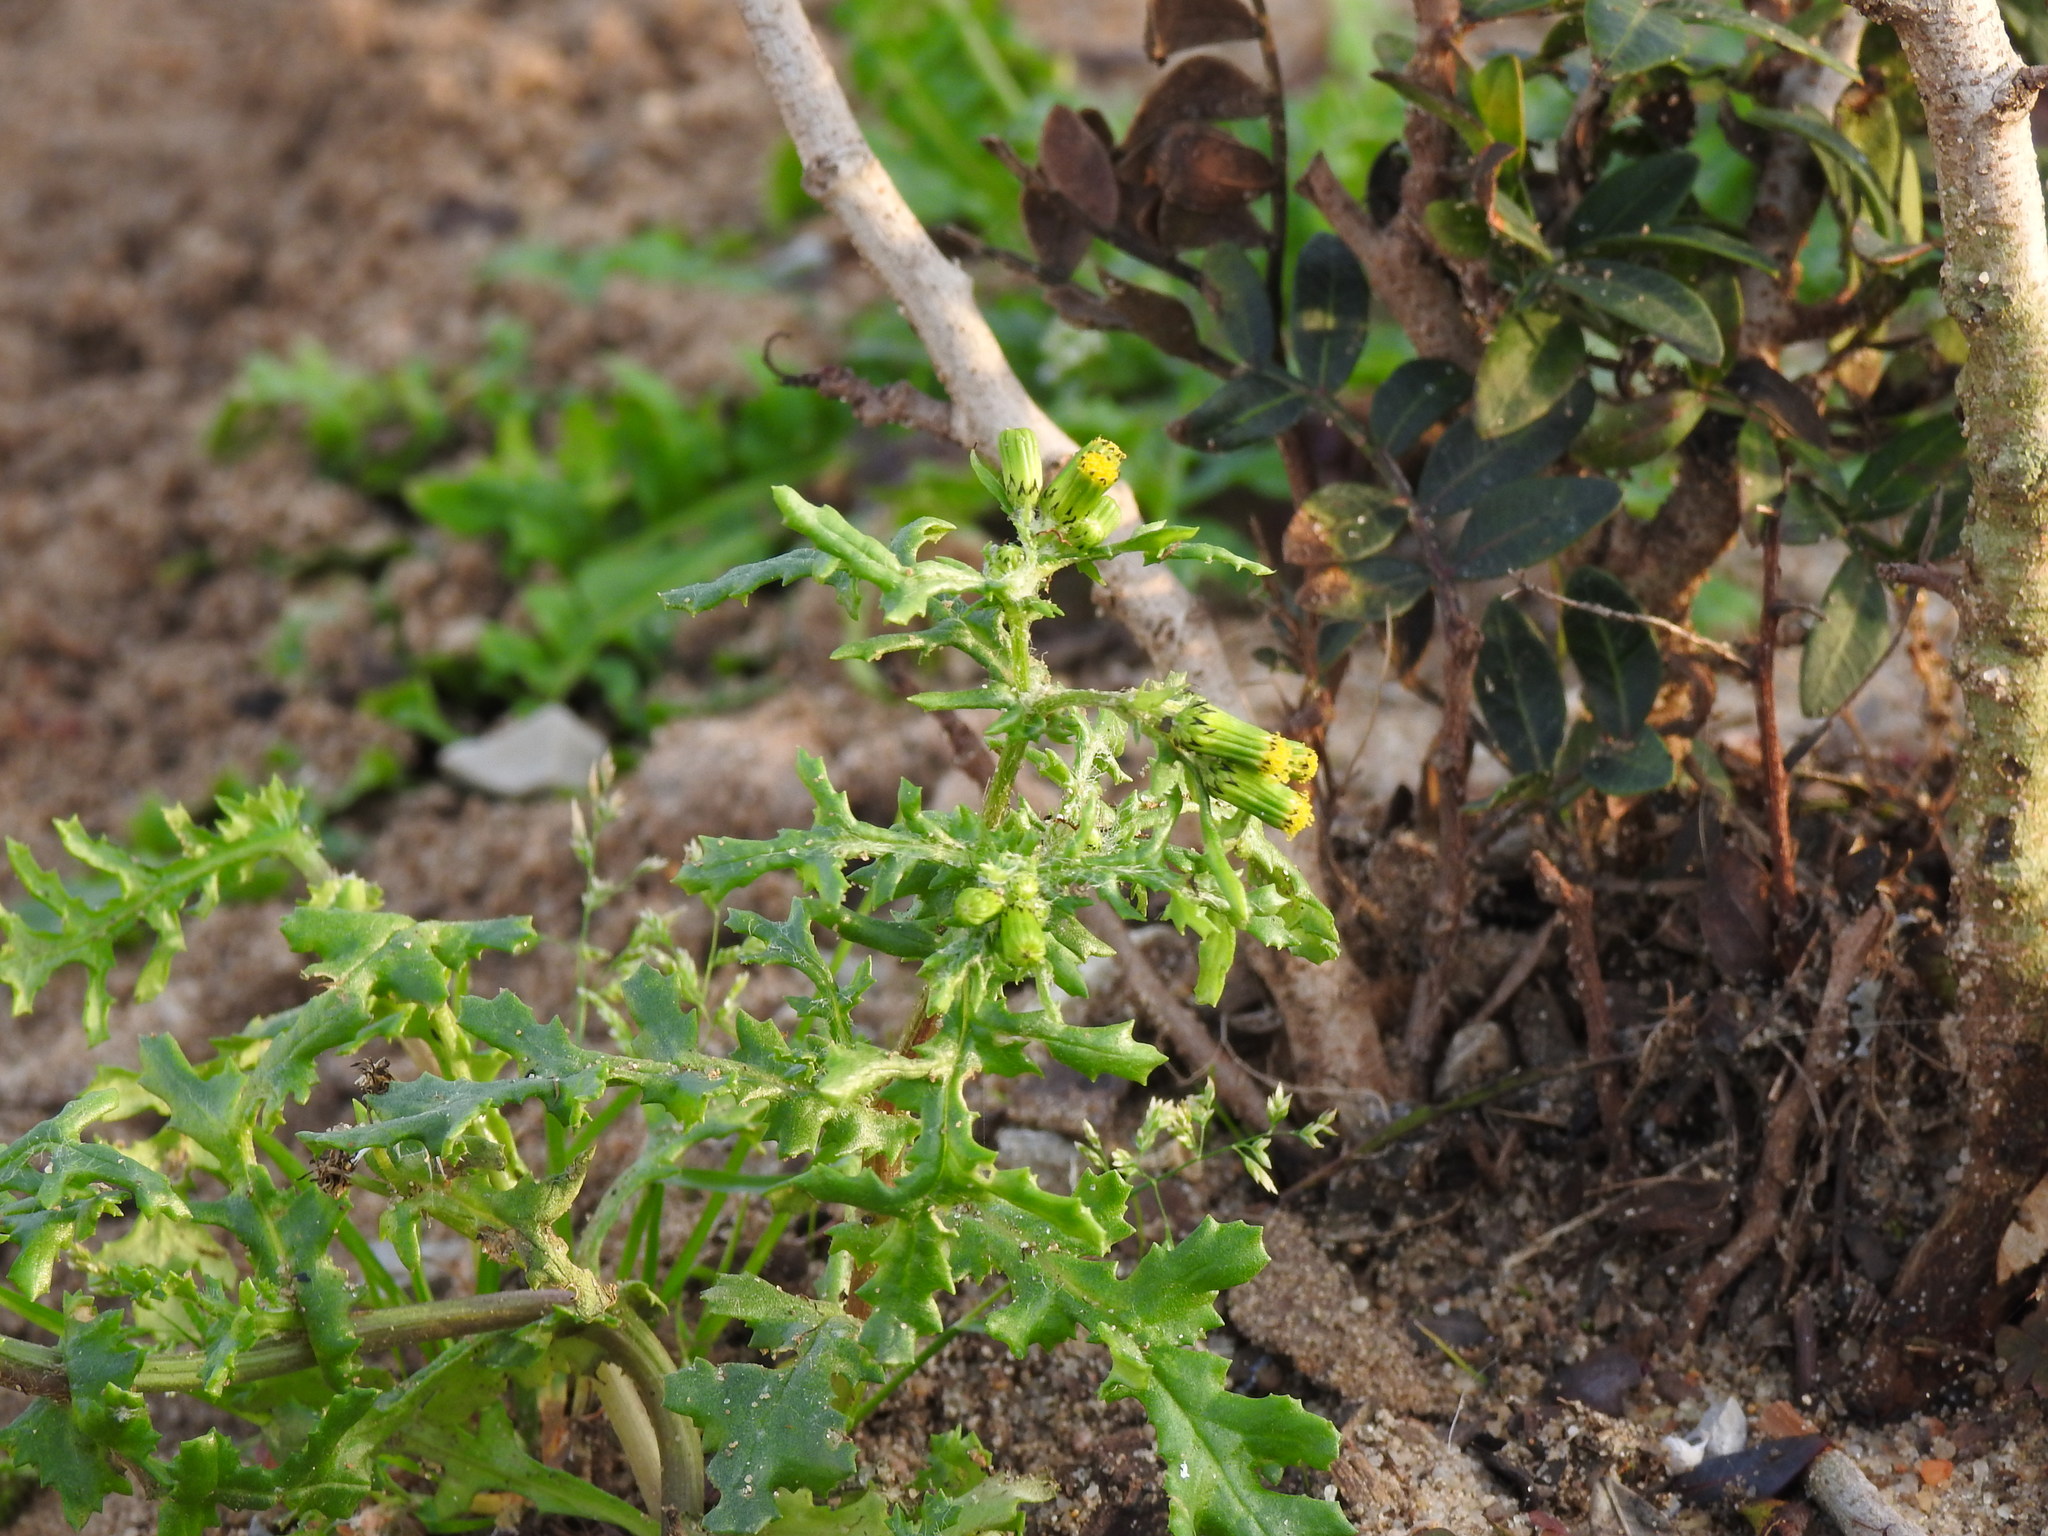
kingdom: Plantae
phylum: Tracheophyta
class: Magnoliopsida
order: Asterales
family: Asteraceae
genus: Senecio
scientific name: Senecio vulgaris
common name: Old-man-in-the-spring
